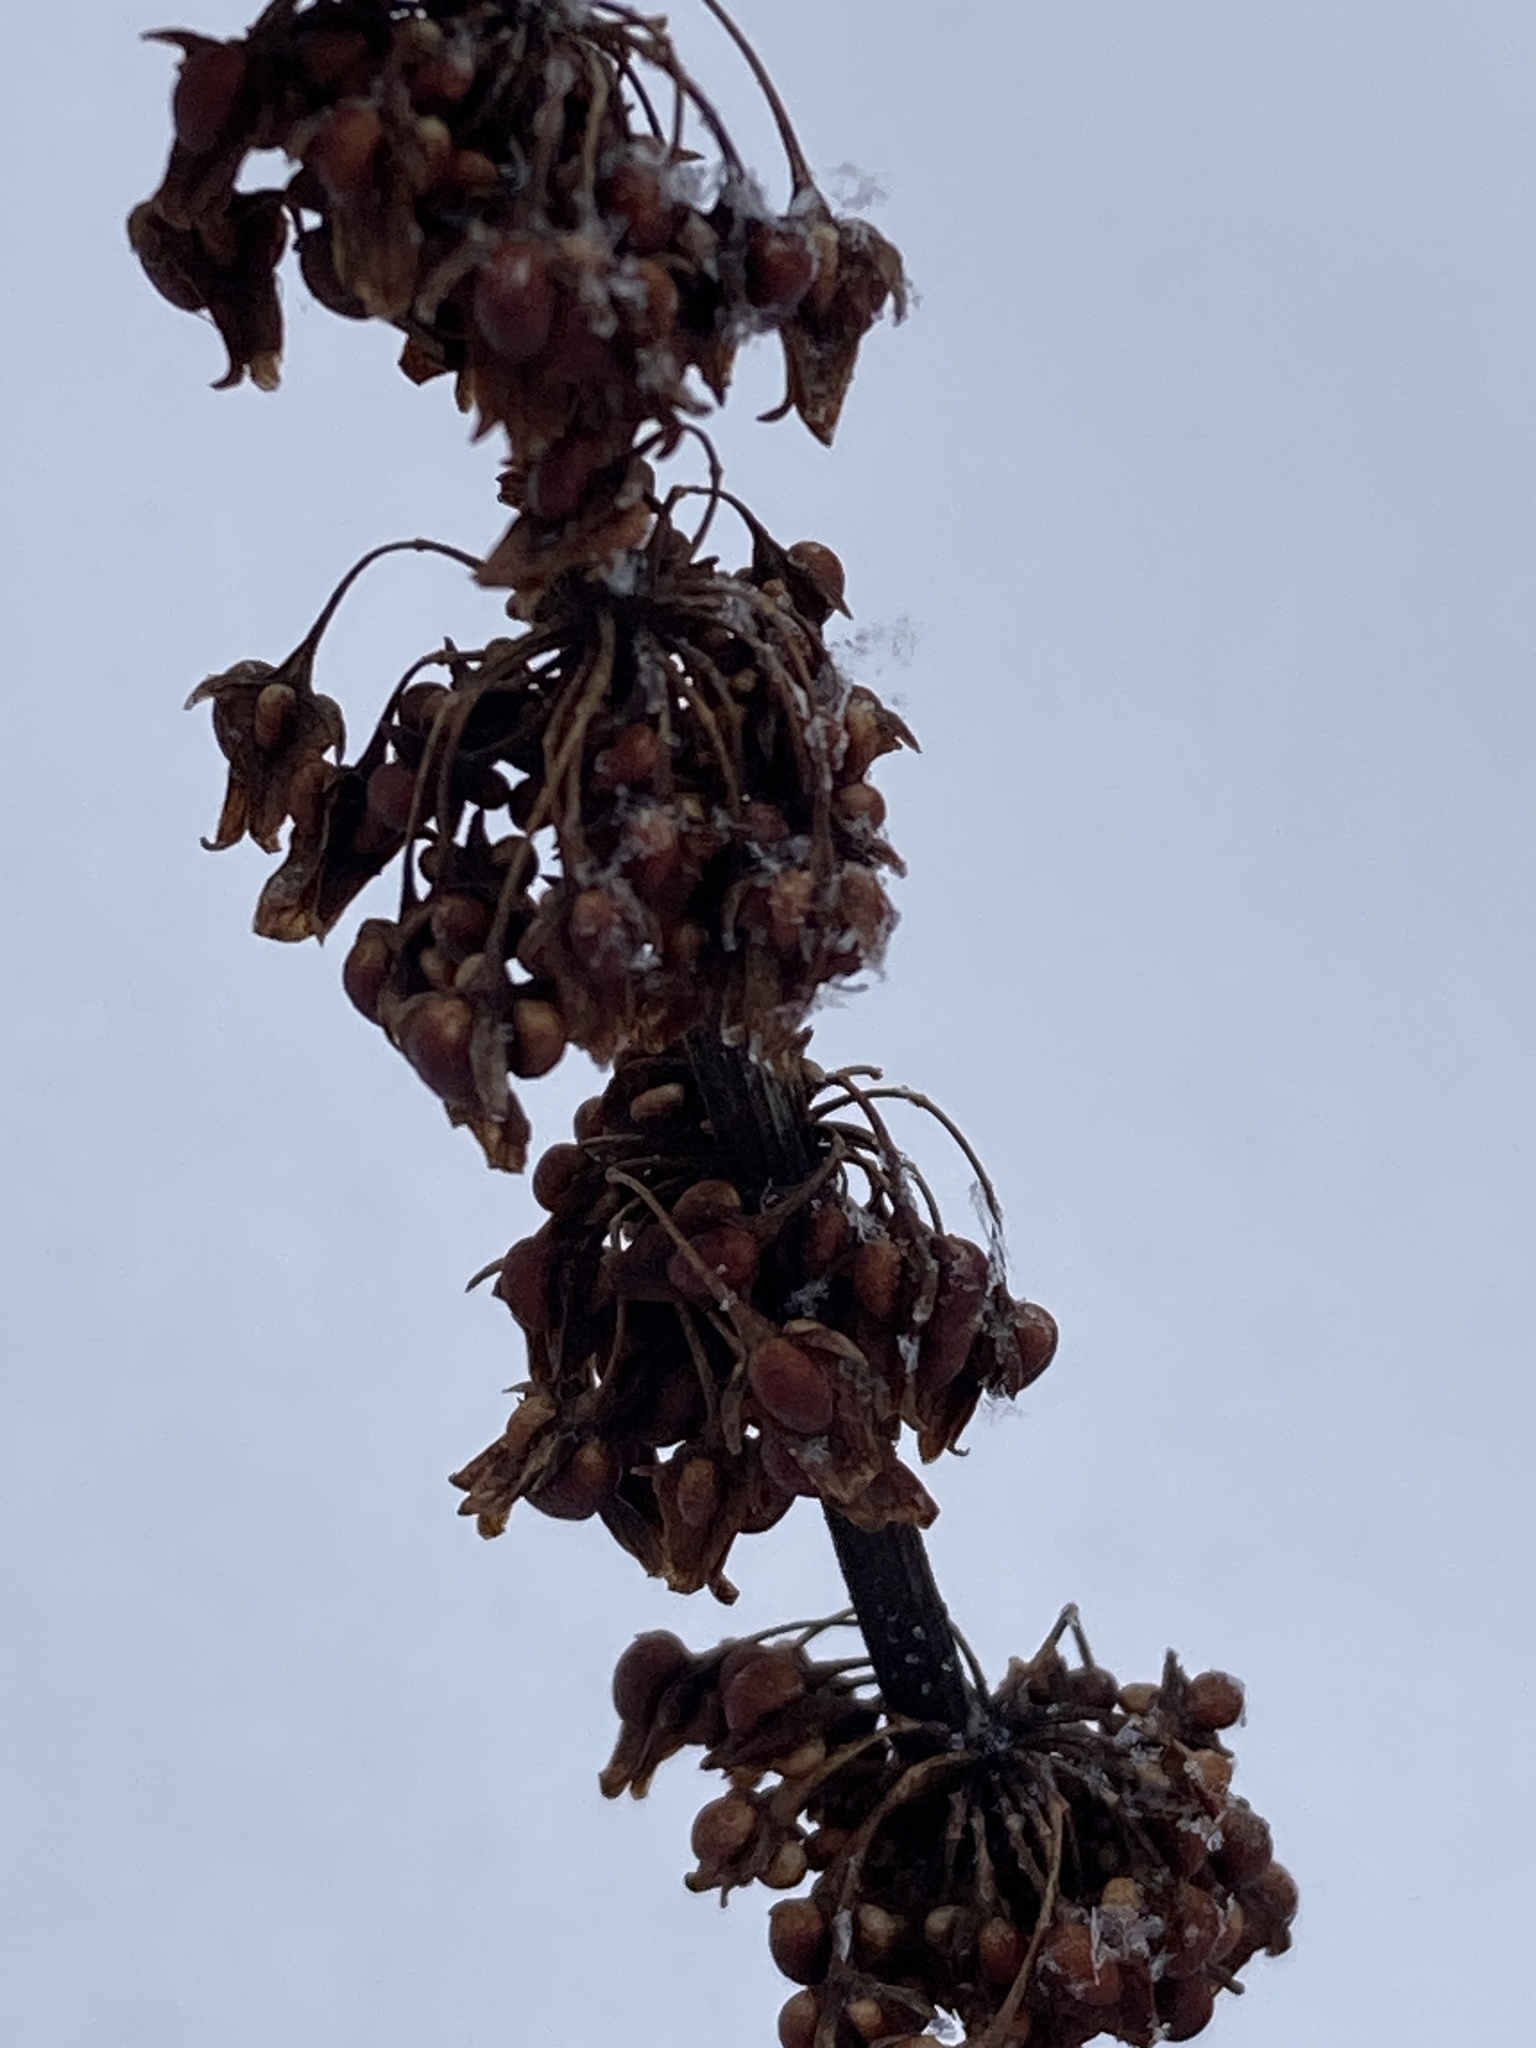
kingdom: Plantae
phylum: Tracheophyta
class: Magnoliopsida
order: Caryophyllales
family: Polygonaceae
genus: Rumex
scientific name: Rumex obtusifolius
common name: Bitter dock
